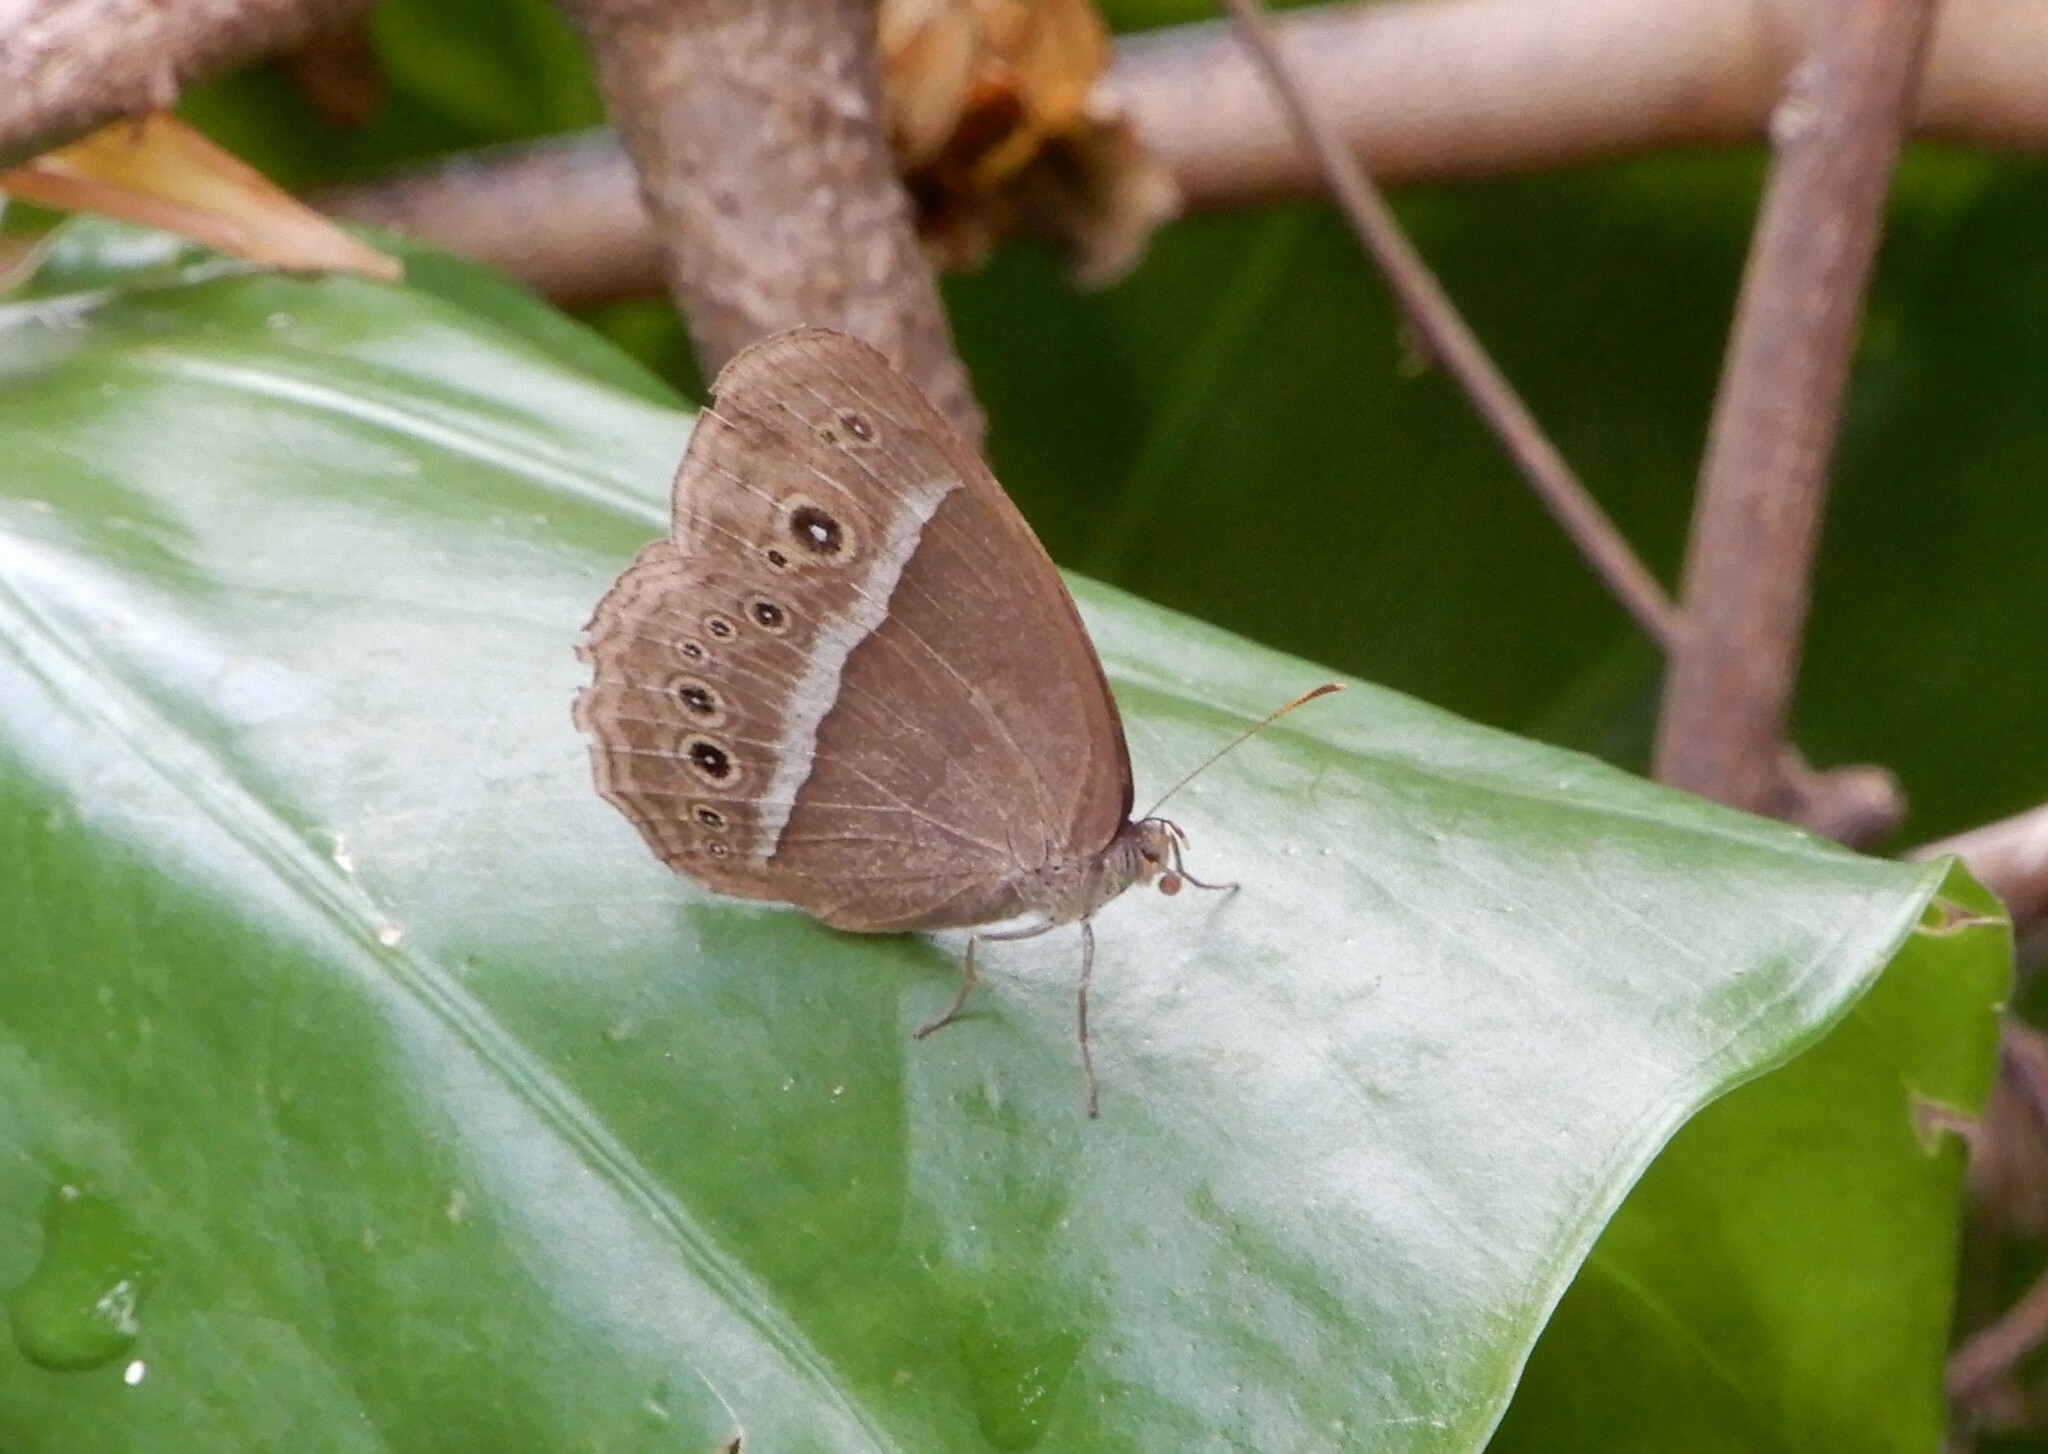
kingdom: Animalia
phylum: Arthropoda
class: Insecta
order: Lepidoptera
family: Nymphalidae
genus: Mycalesis
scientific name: Mycalesis mineus
